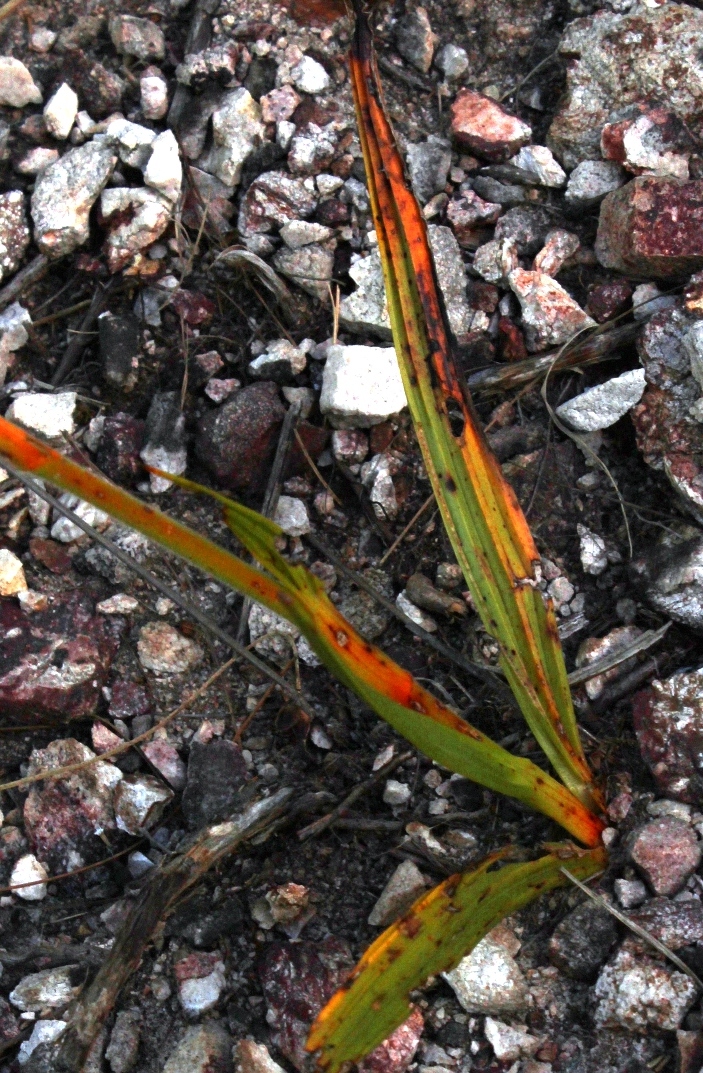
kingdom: Plantae
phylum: Tracheophyta
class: Liliopsida
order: Commelinales
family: Haemodoraceae
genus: Wachendorfia
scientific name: Wachendorfia paniculata
